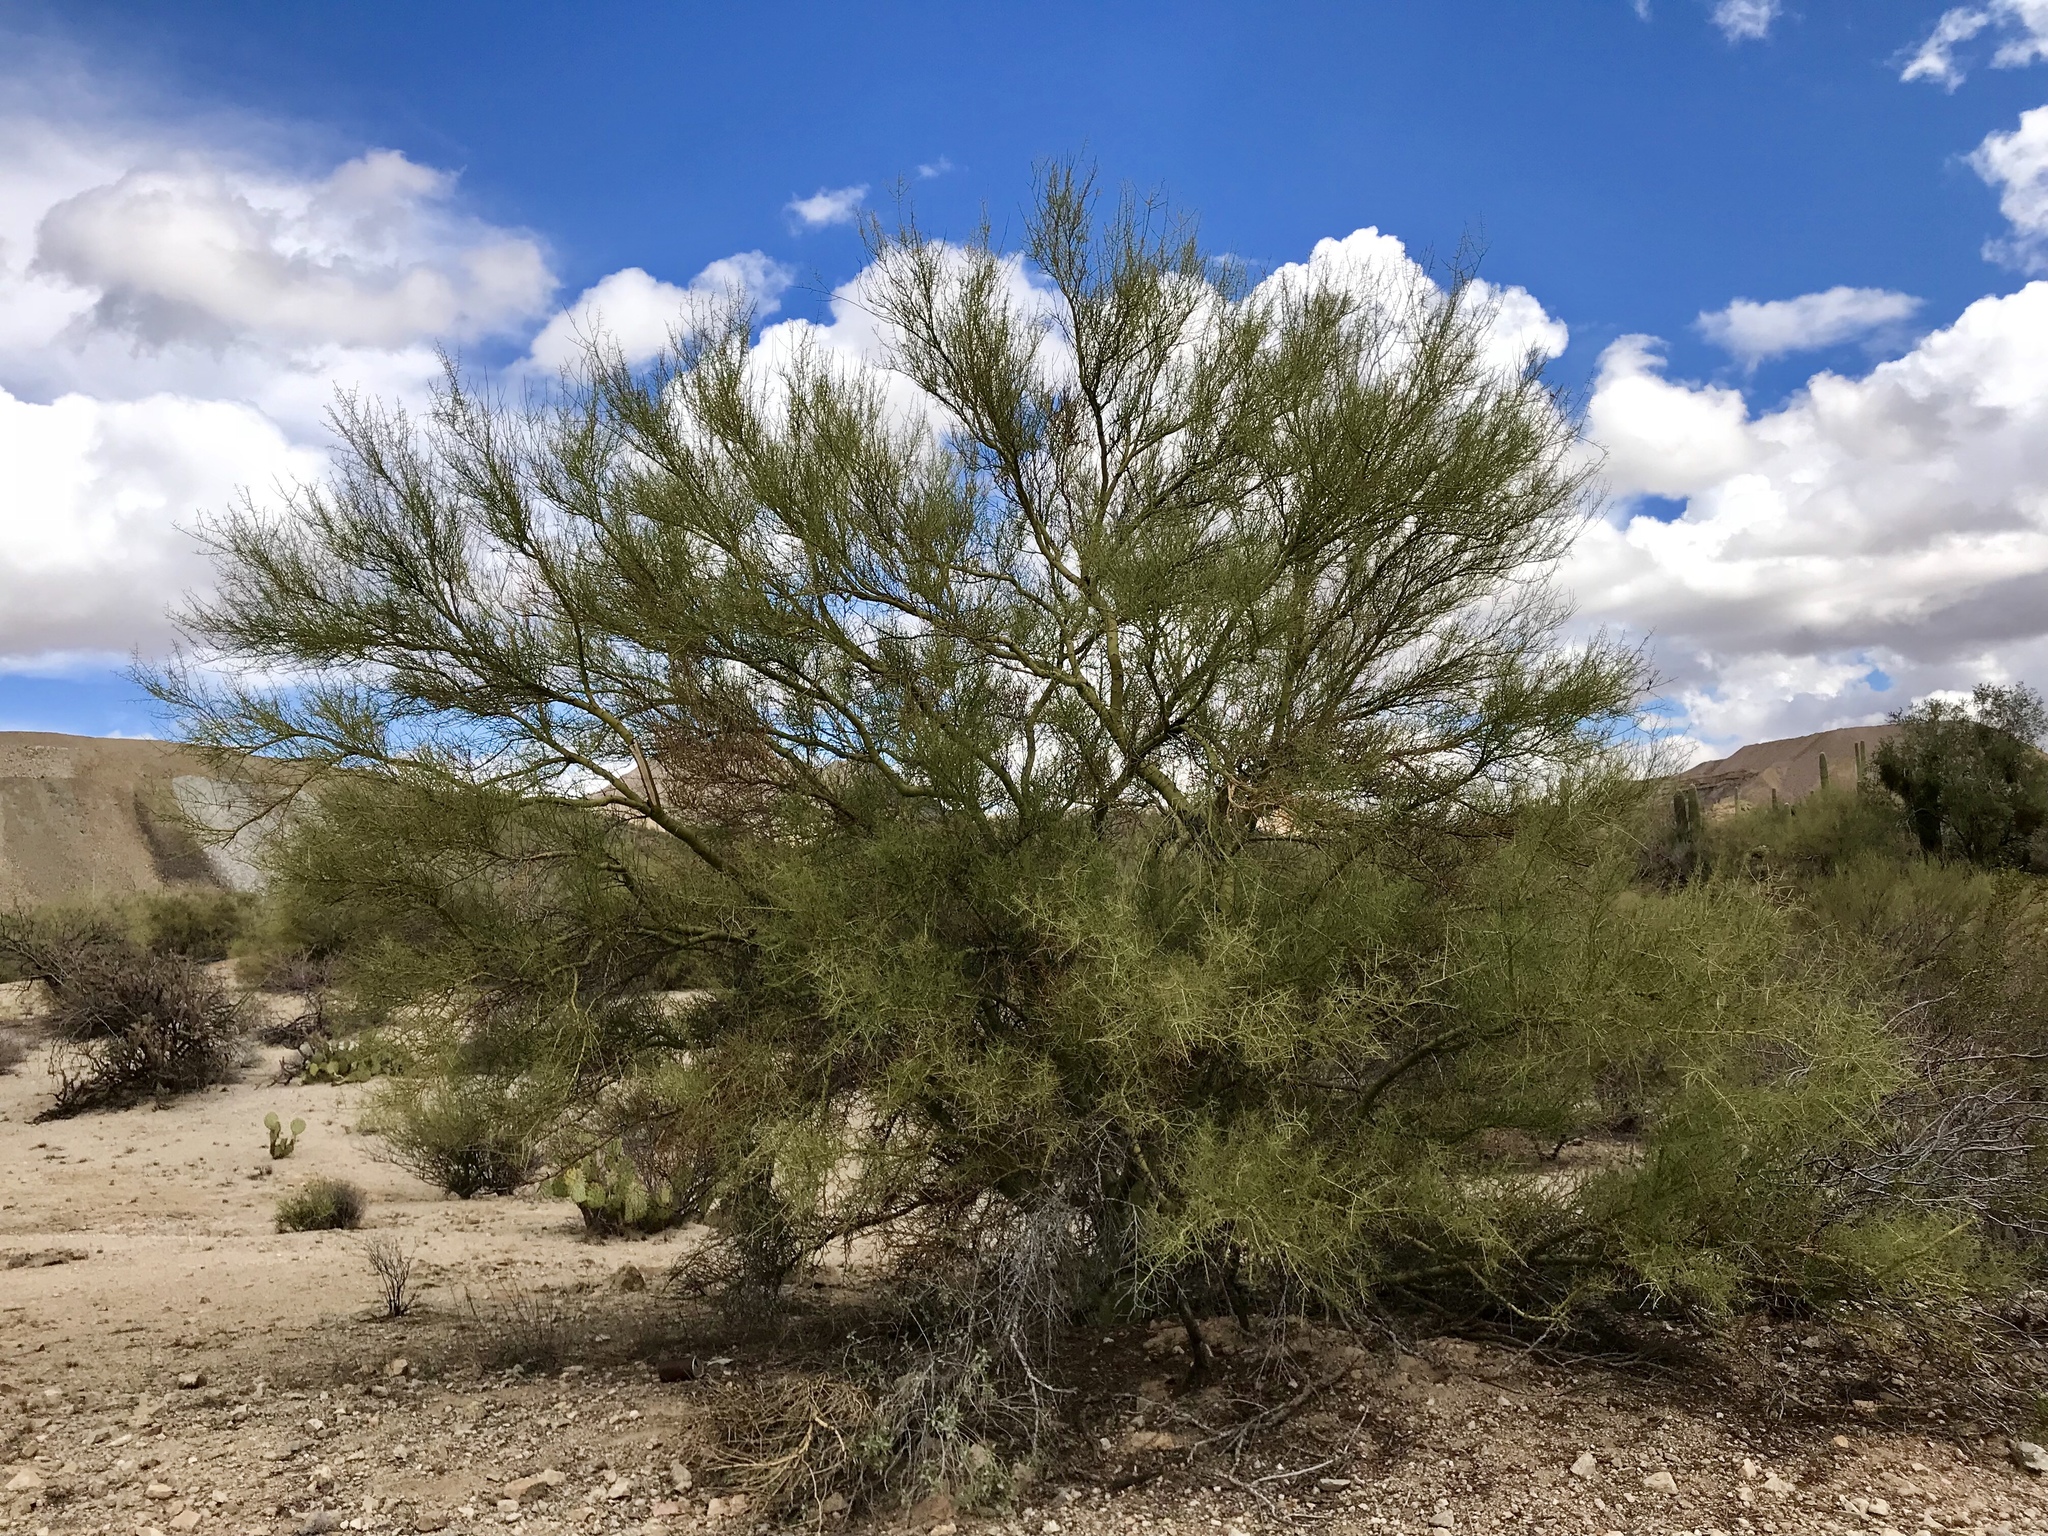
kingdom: Plantae
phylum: Tracheophyta
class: Magnoliopsida
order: Fabales
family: Fabaceae
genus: Parkinsonia
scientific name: Parkinsonia microphylla
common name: Yellow paloverde
